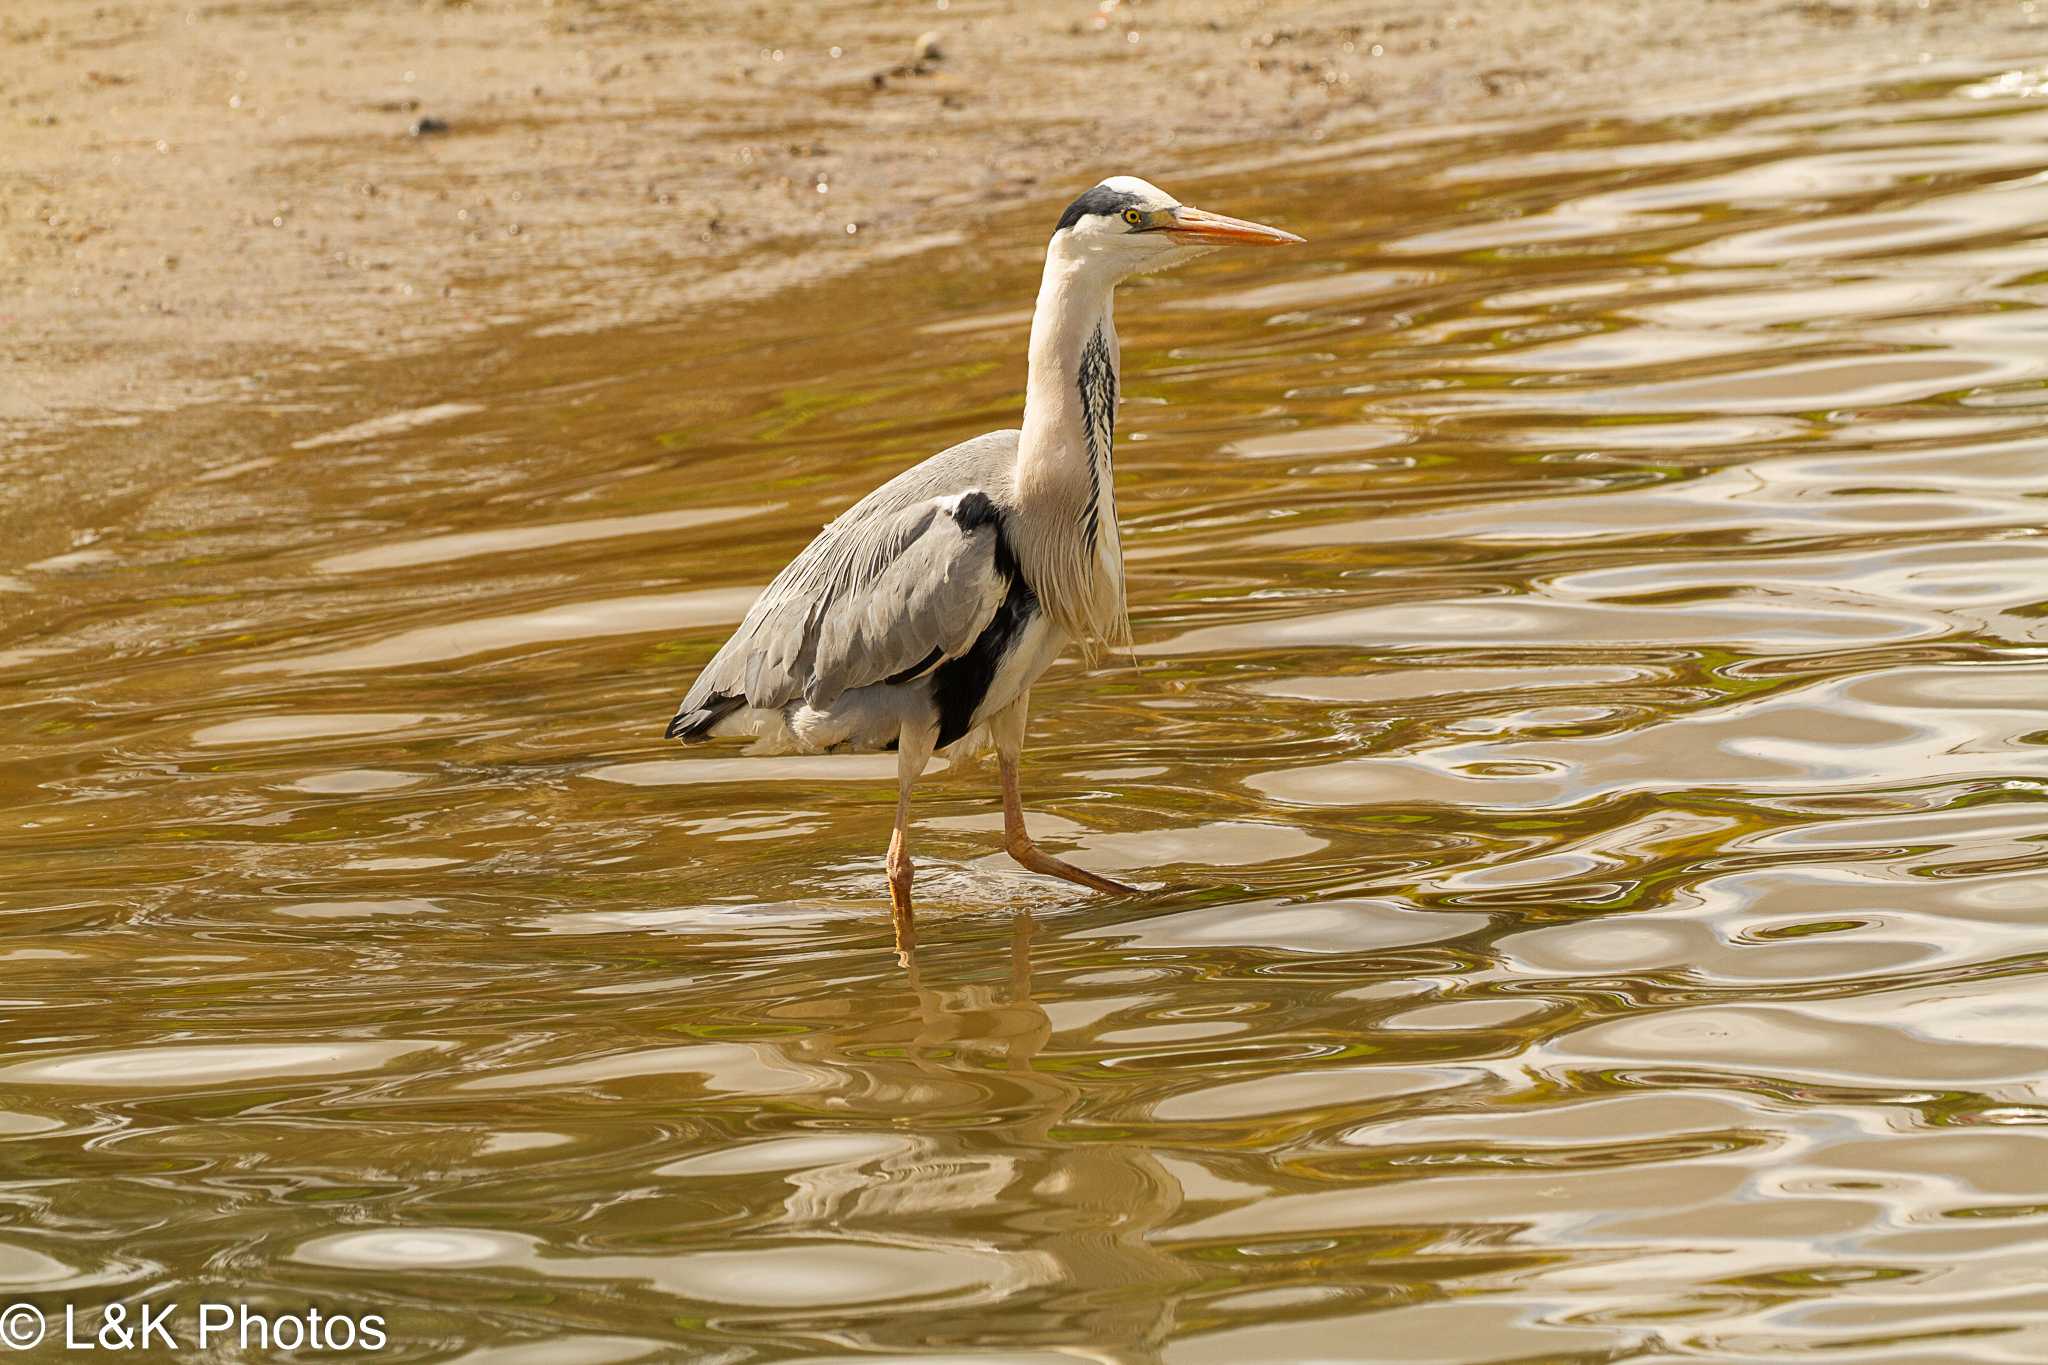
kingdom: Animalia
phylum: Chordata
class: Aves
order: Pelecaniformes
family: Ardeidae
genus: Ardea
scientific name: Ardea cinerea
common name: Grey heron
